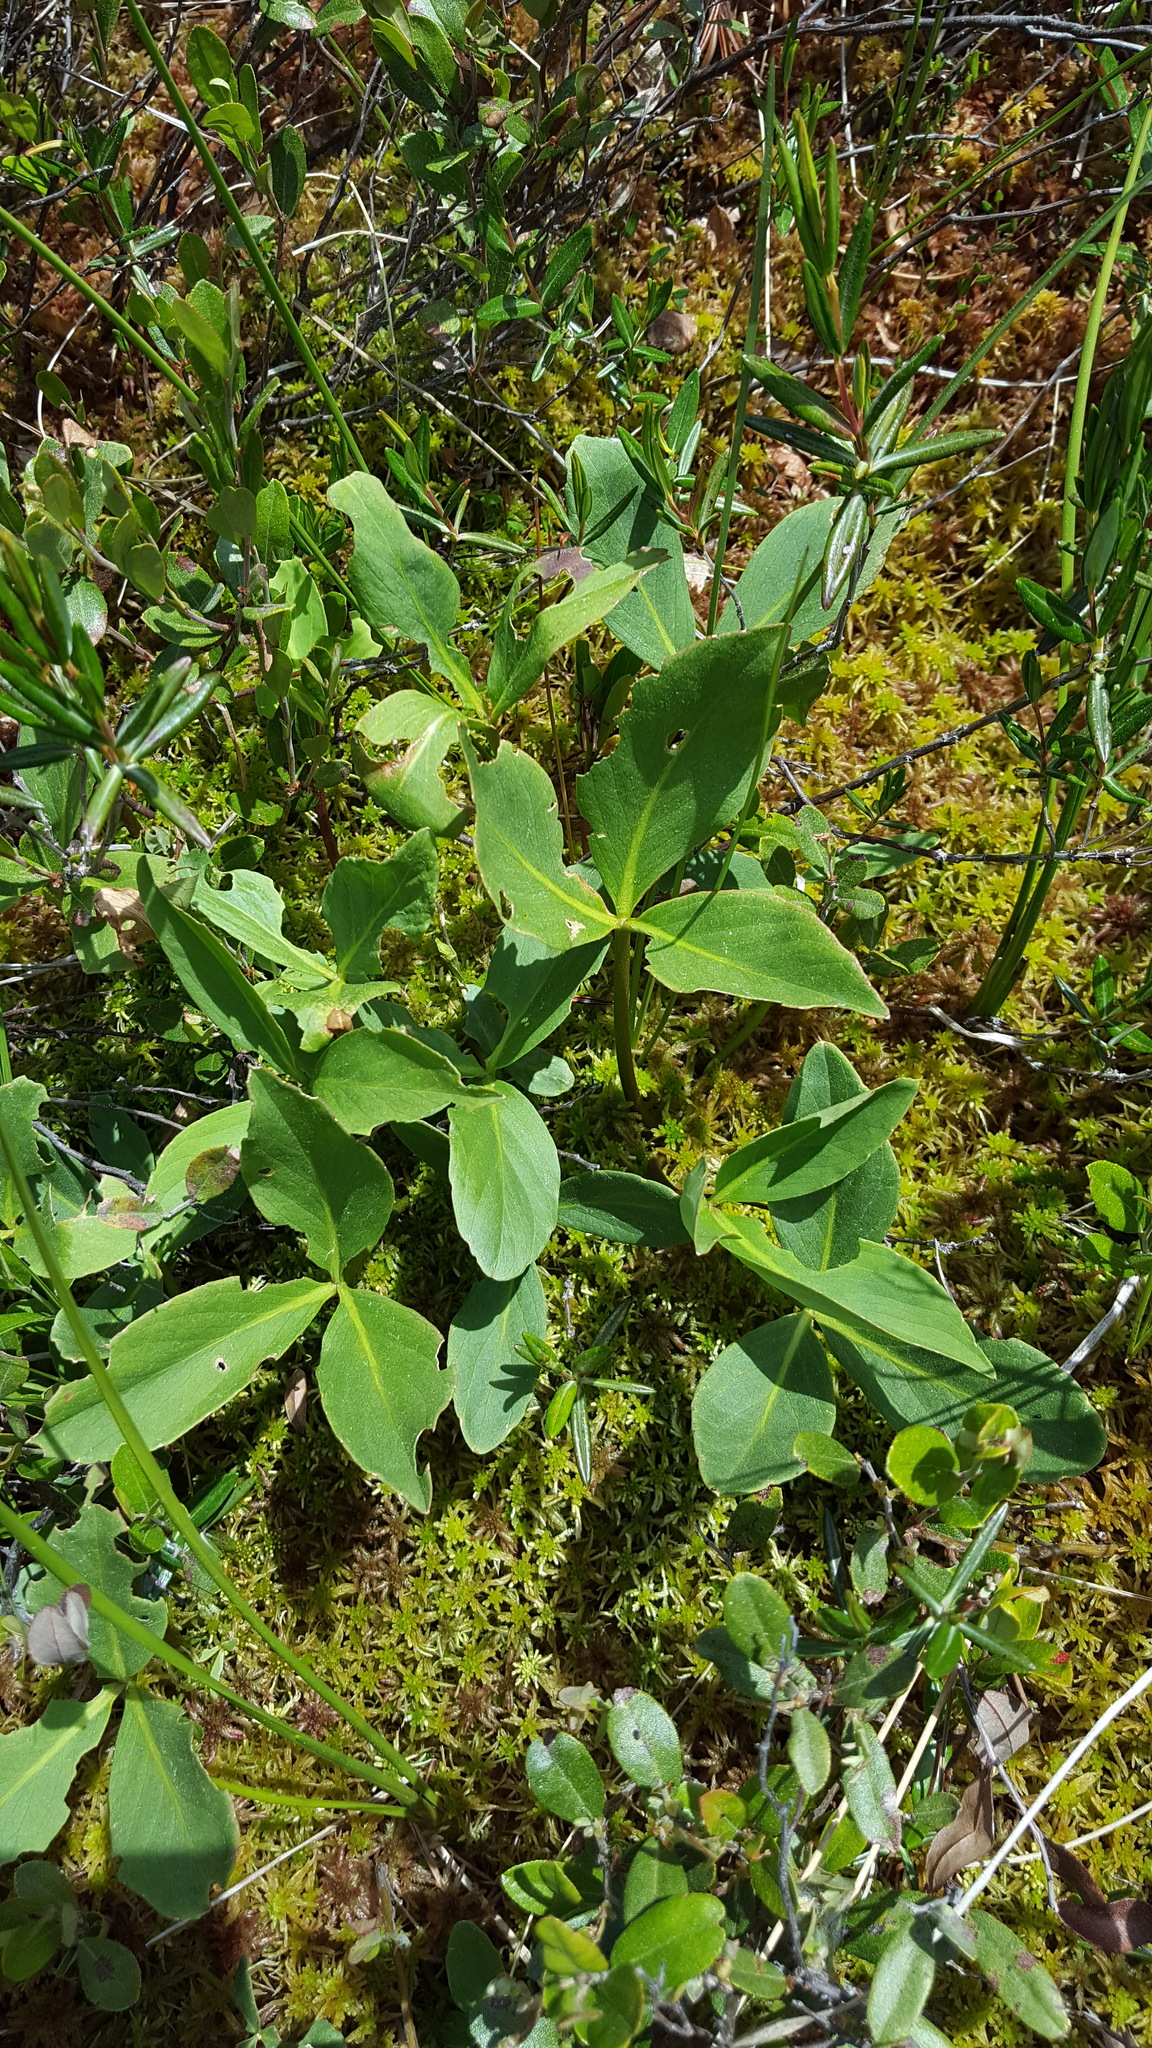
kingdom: Plantae
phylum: Tracheophyta
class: Magnoliopsida
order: Asterales
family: Menyanthaceae
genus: Menyanthes
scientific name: Menyanthes trifoliata
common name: Bogbean
